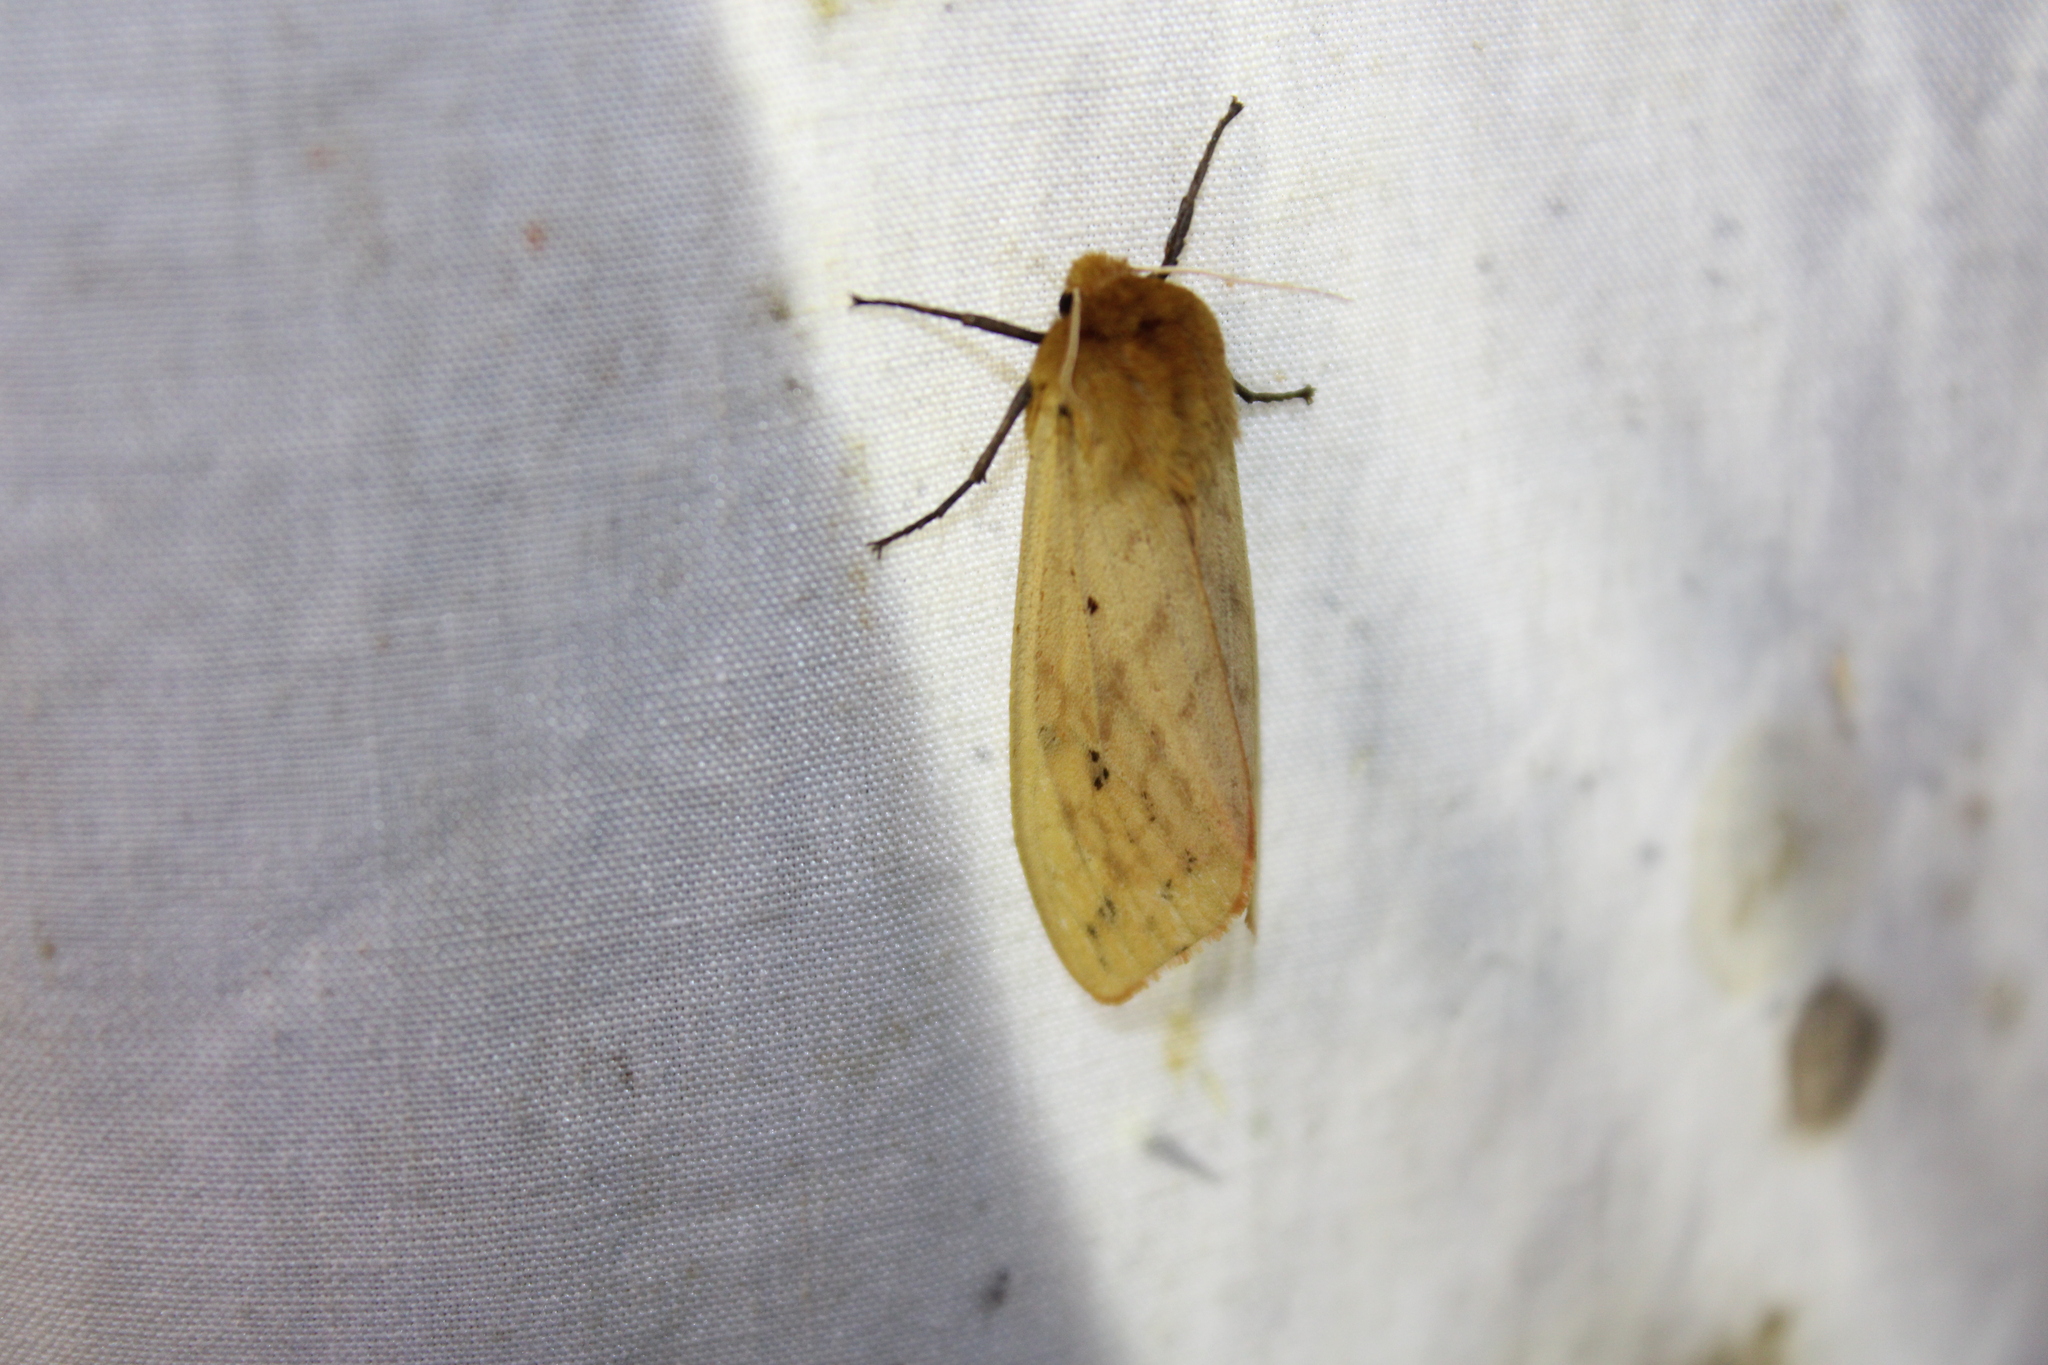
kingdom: Animalia
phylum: Arthropoda
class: Insecta
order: Lepidoptera
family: Erebidae
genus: Pyrrharctia
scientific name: Pyrrharctia isabella
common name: Isabella tiger moth
